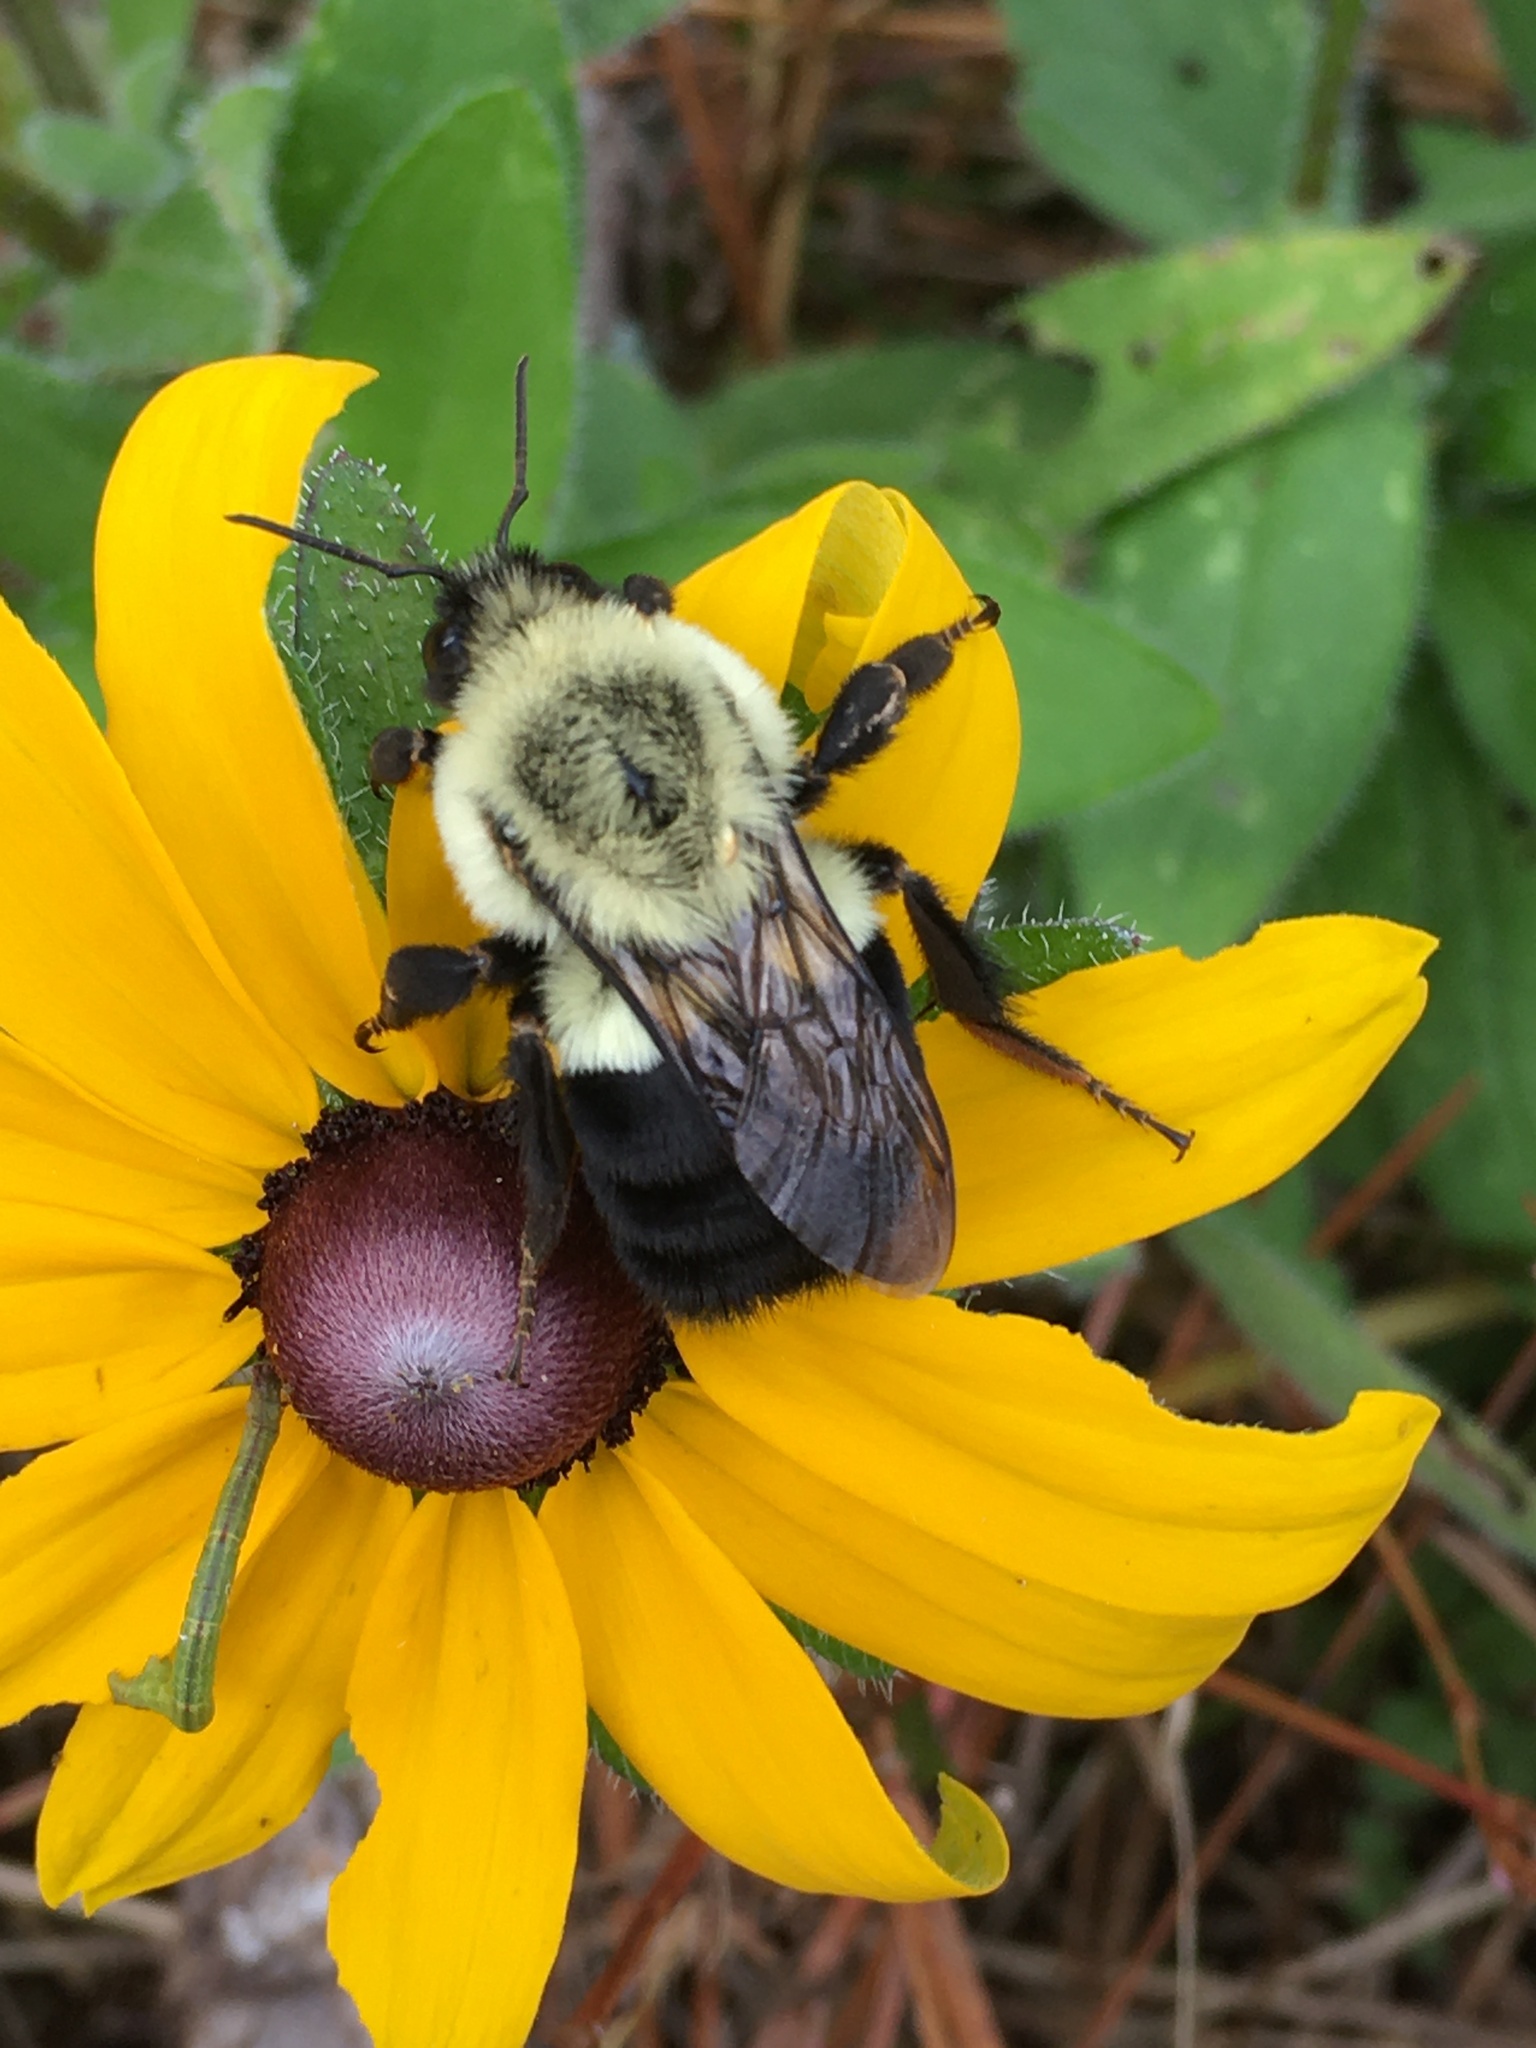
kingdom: Animalia
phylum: Arthropoda
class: Insecta
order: Hymenoptera
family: Apidae
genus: Bombus
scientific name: Bombus impatiens
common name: Common eastern bumble bee
